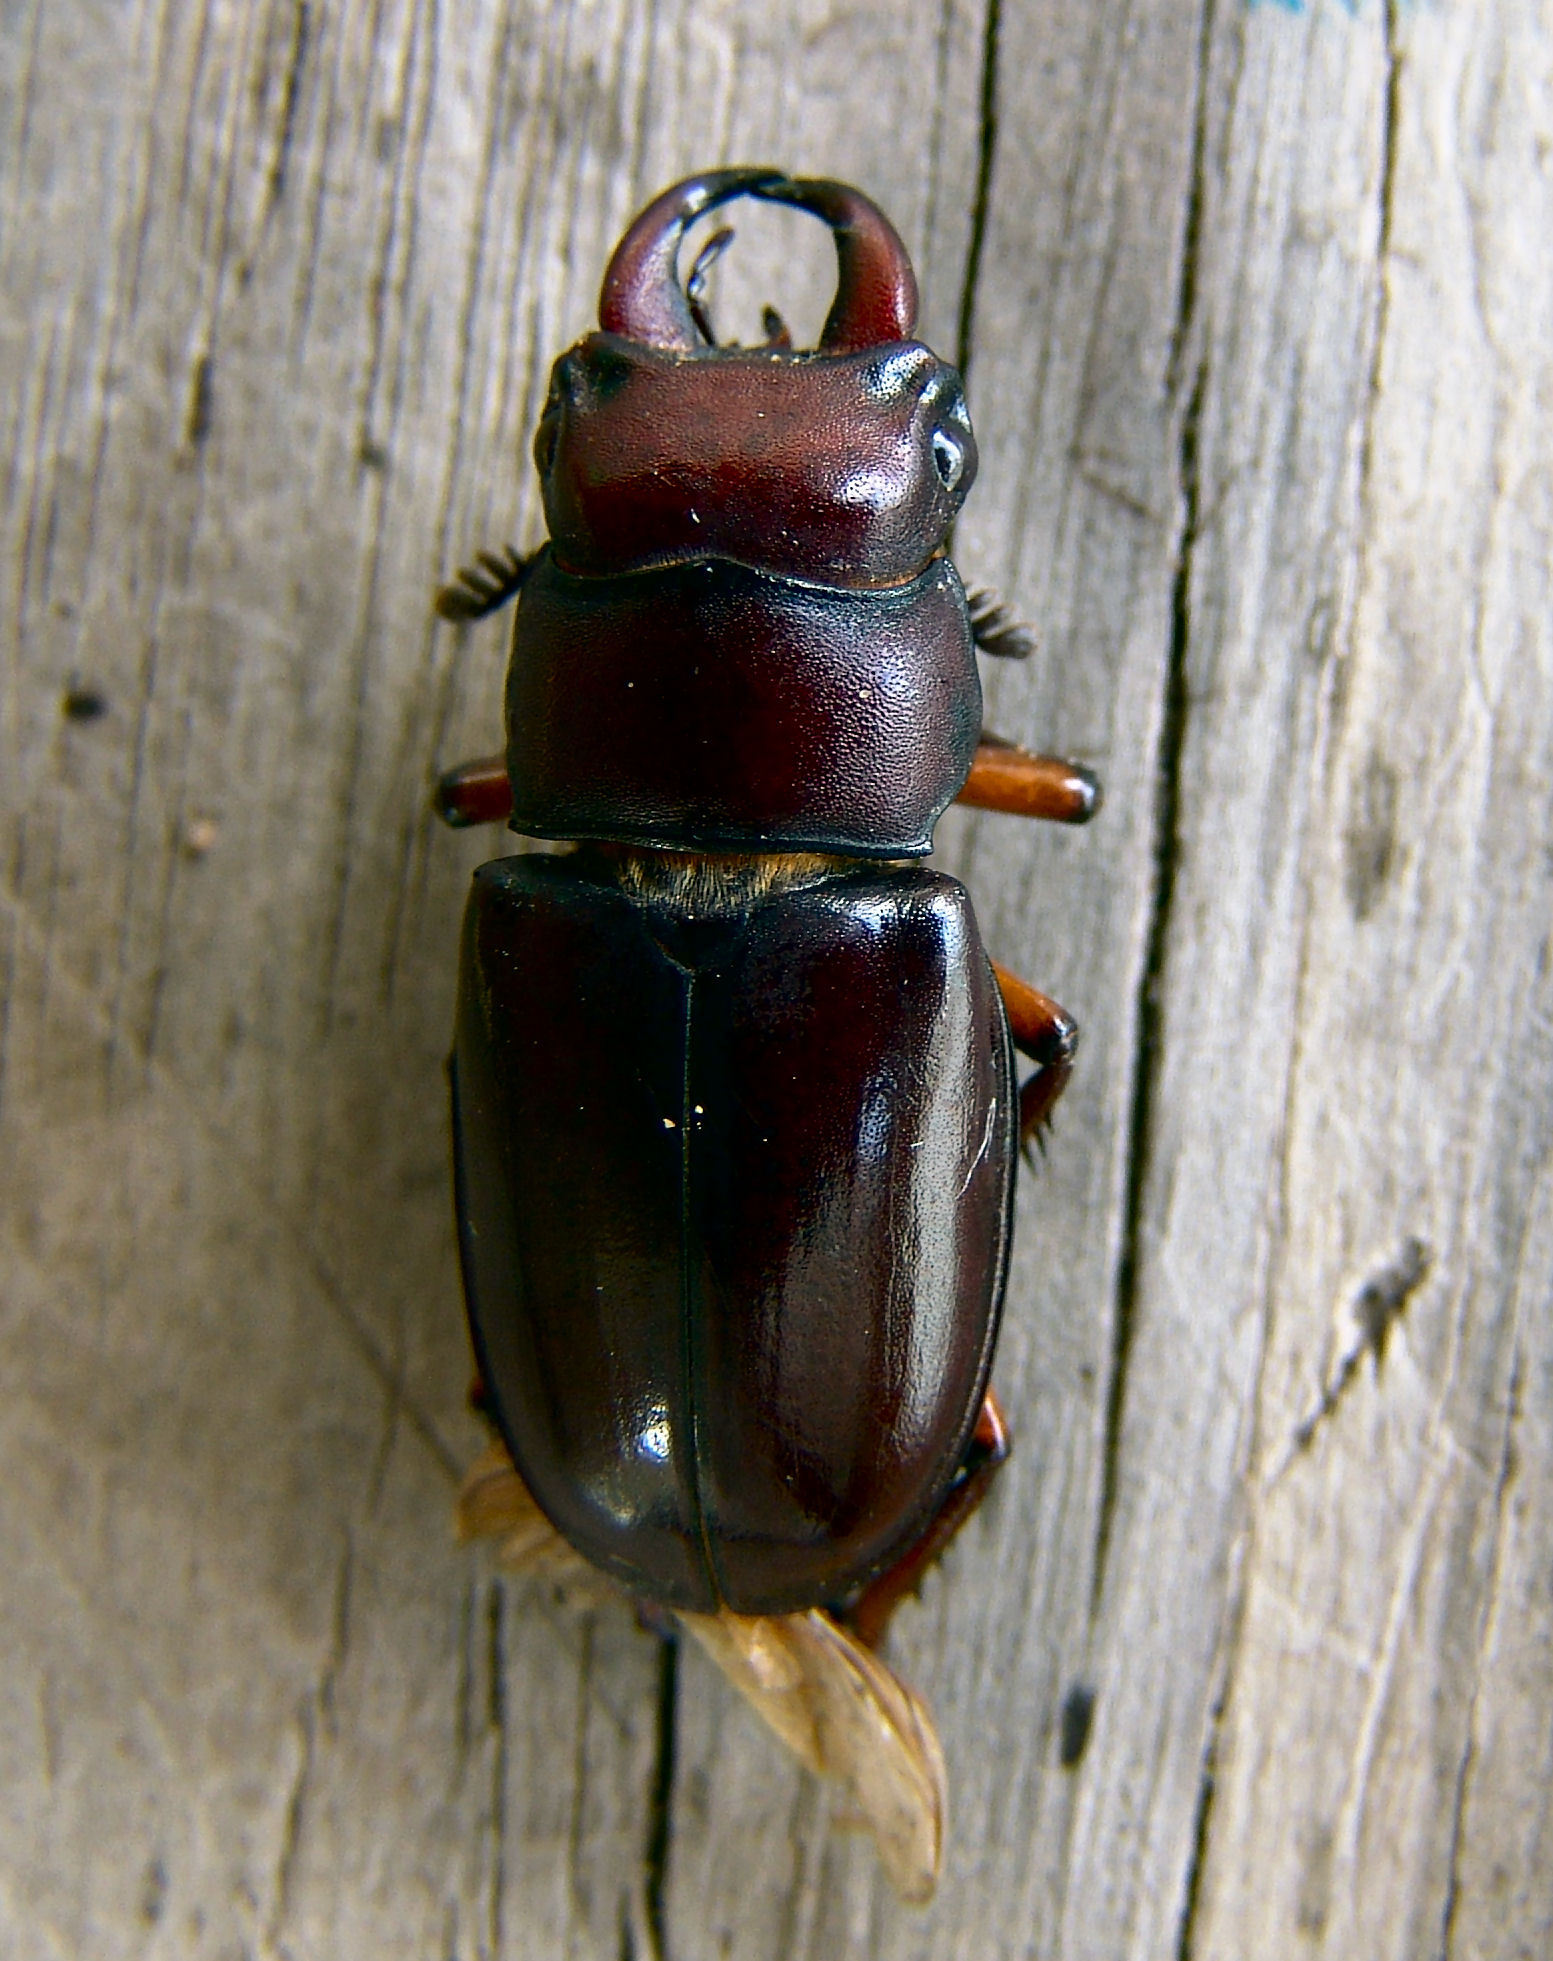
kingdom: Animalia
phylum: Arthropoda
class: Insecta
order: Coleoptera
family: Lucanidae
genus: Lucanus
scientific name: Lucanus capreolus
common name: Stag beetle
